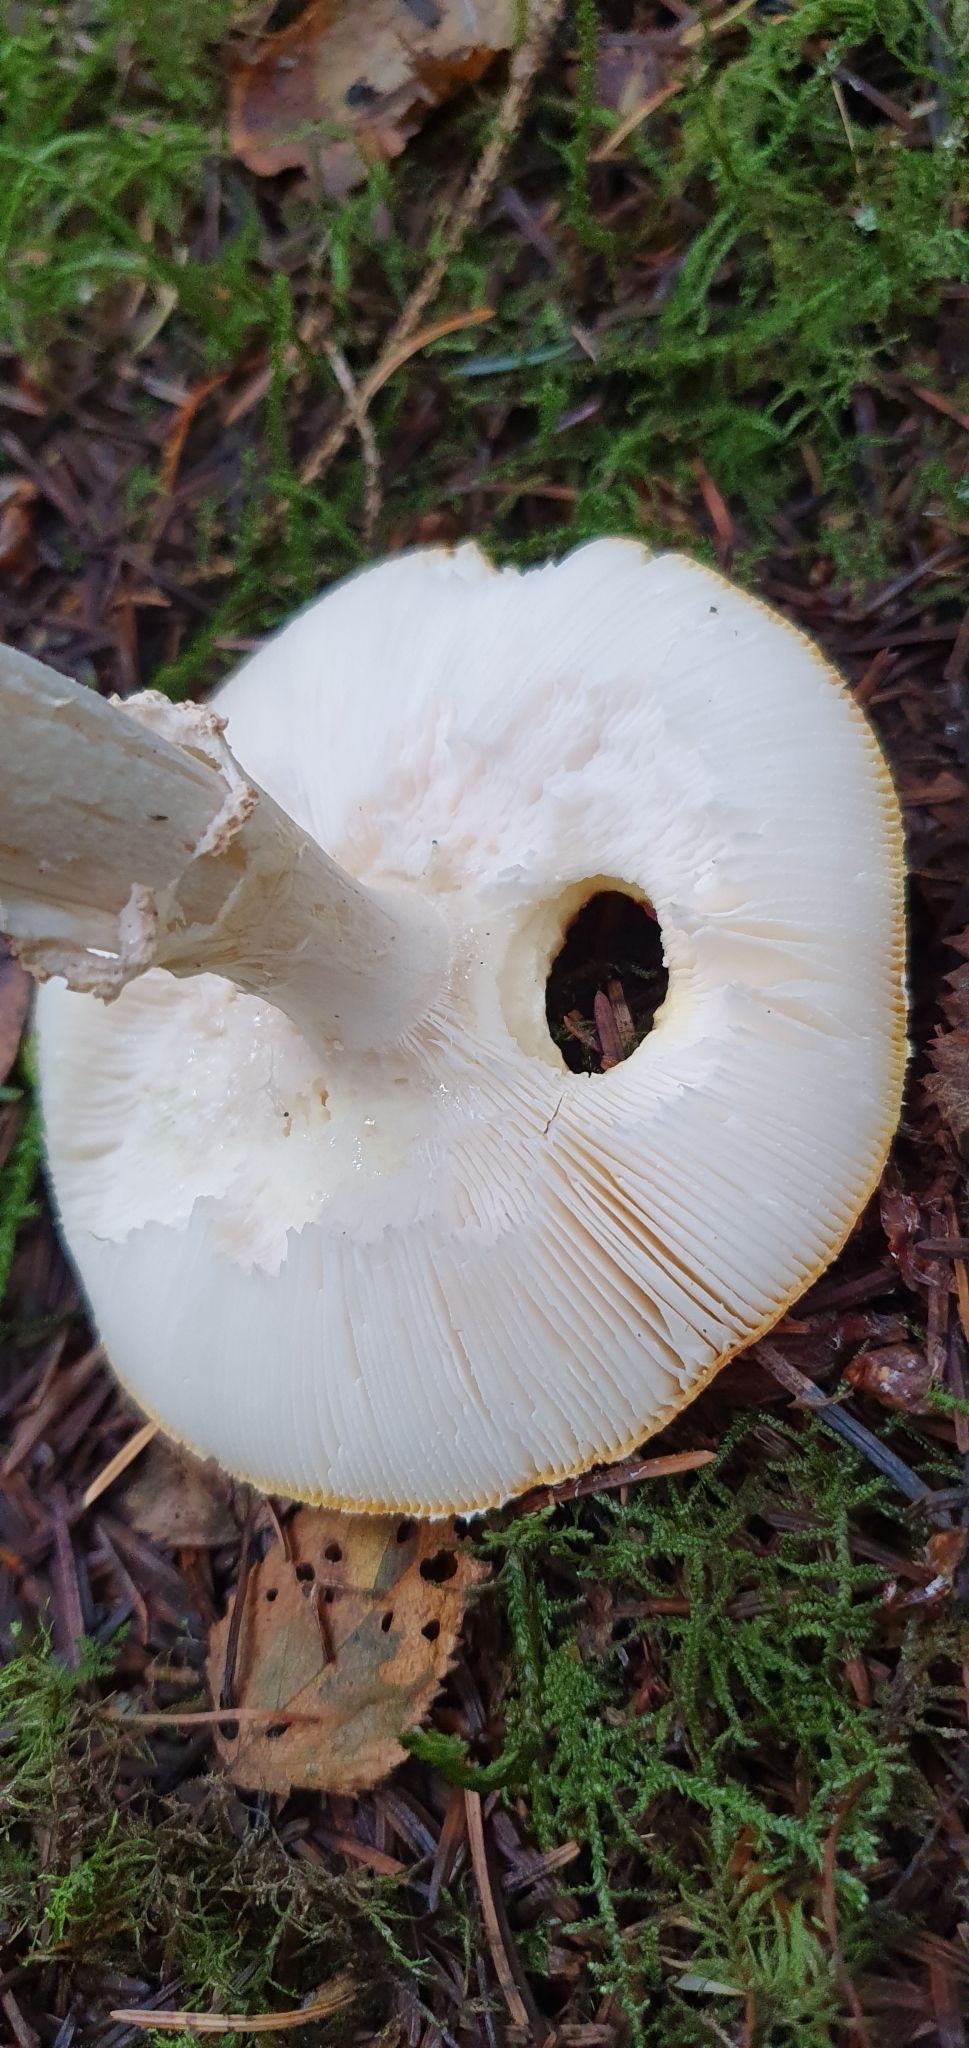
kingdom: Fungi
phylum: Basidiomycota
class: Agaricomycetes
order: Agaricales
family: Amanitaceae
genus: Amanita
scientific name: Amanita muscaria
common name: Fly agaric
